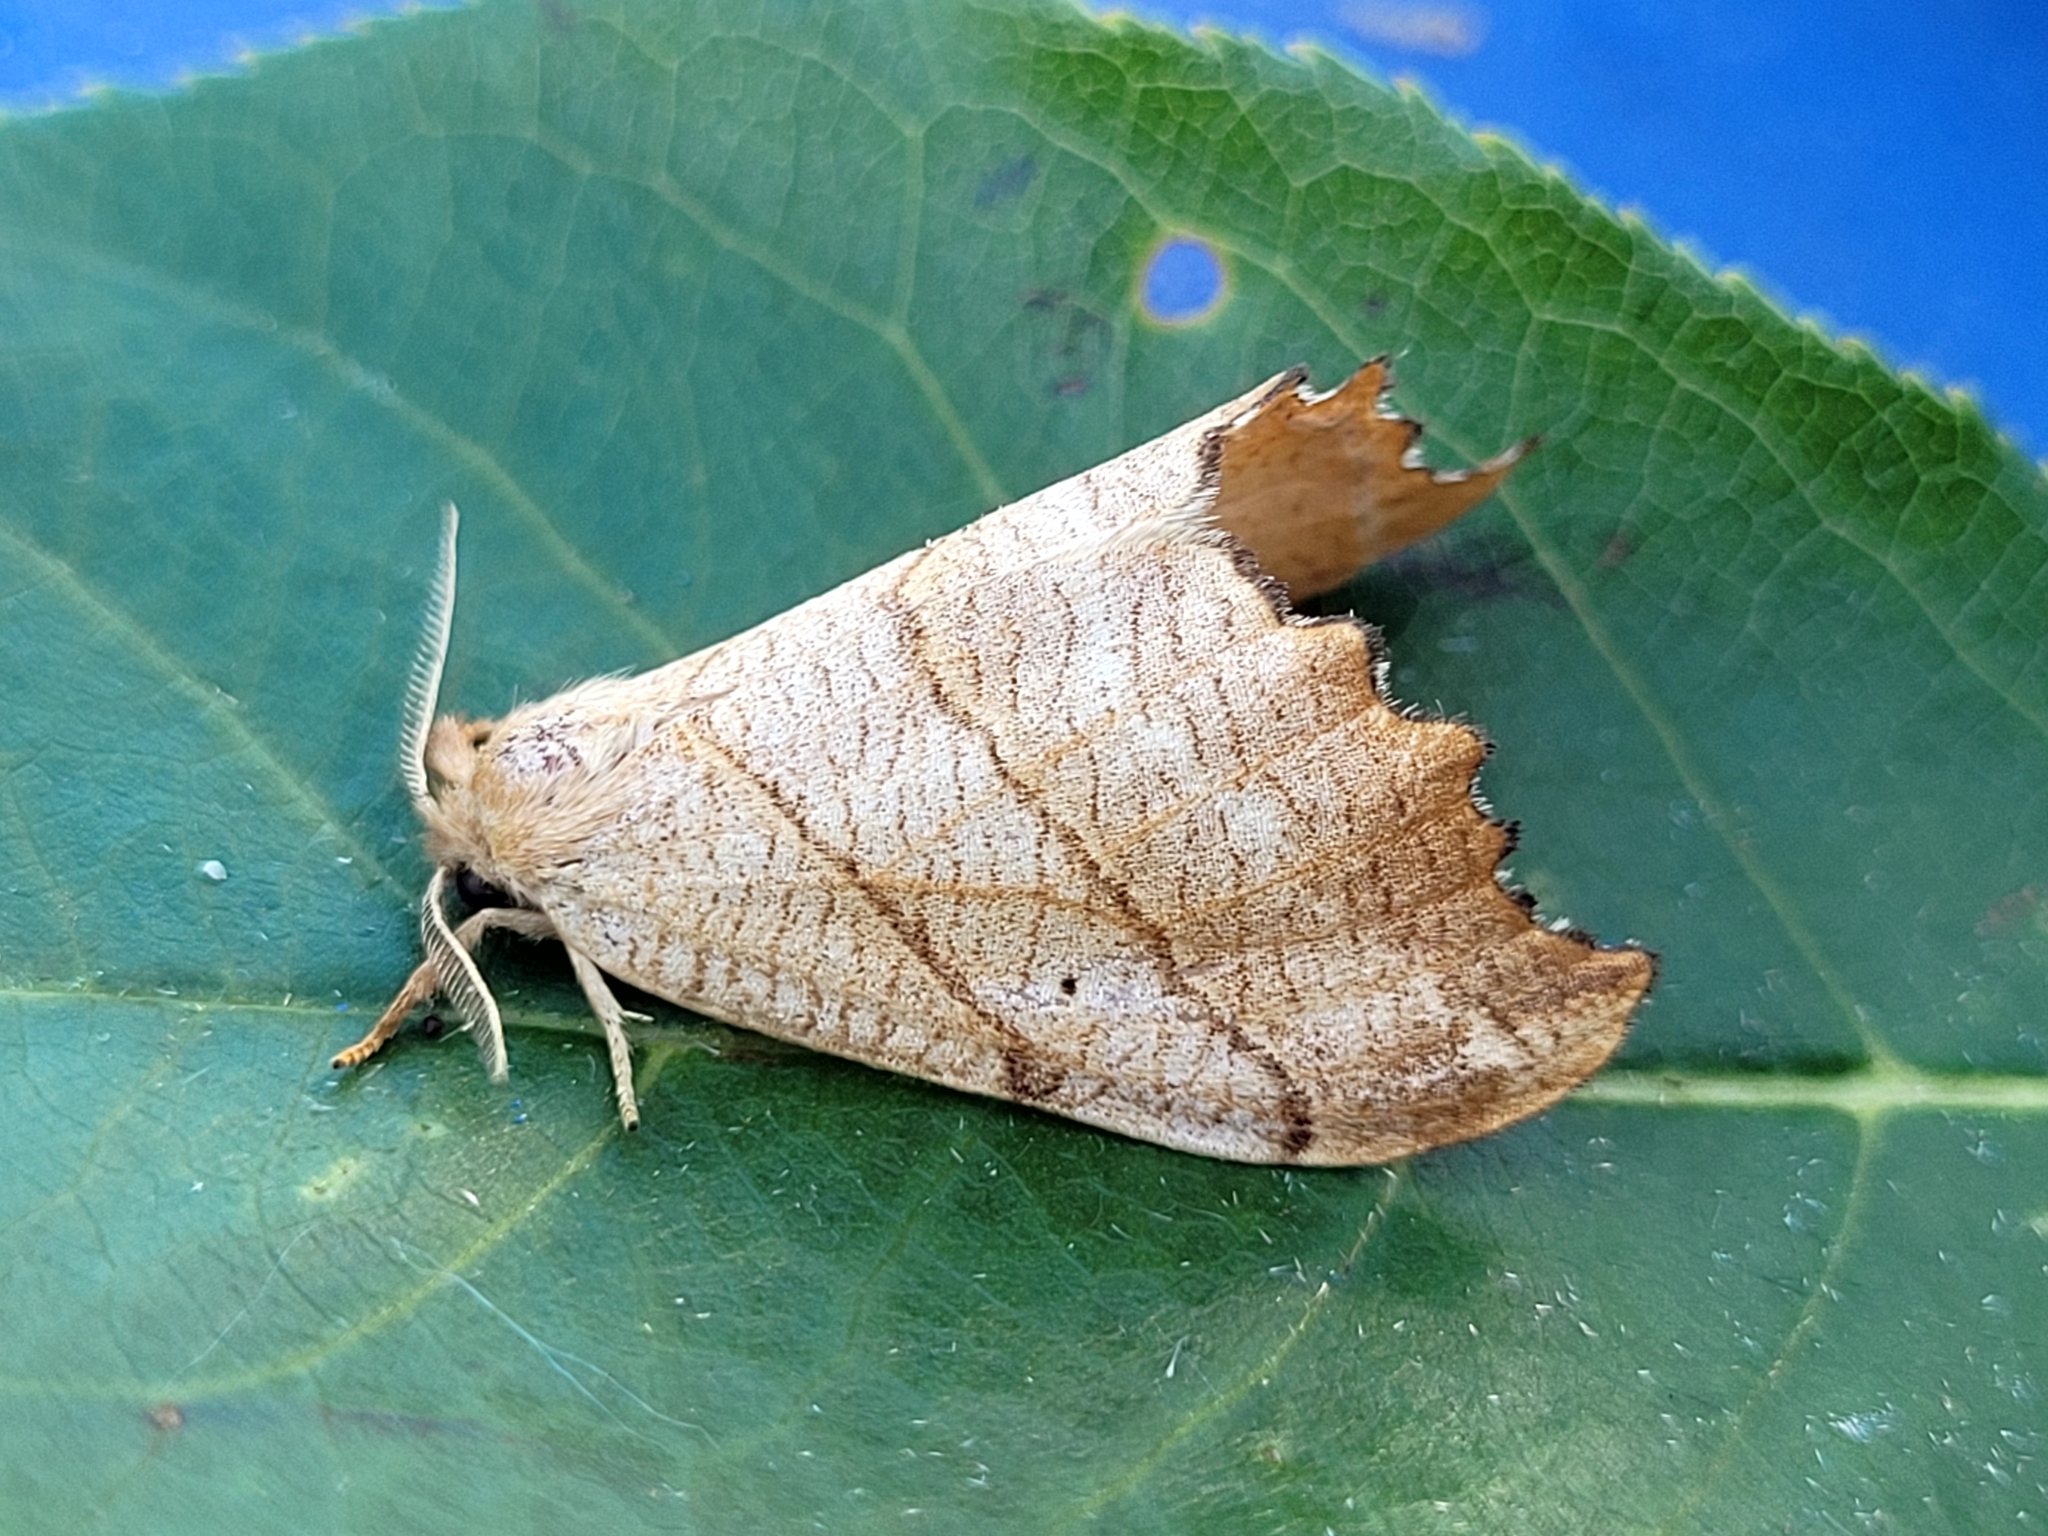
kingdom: Animalia
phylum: Arthropoda
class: Insecta
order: Lepidoptera
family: Drepanidae
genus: Falcaria
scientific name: Falcaria bilineata
